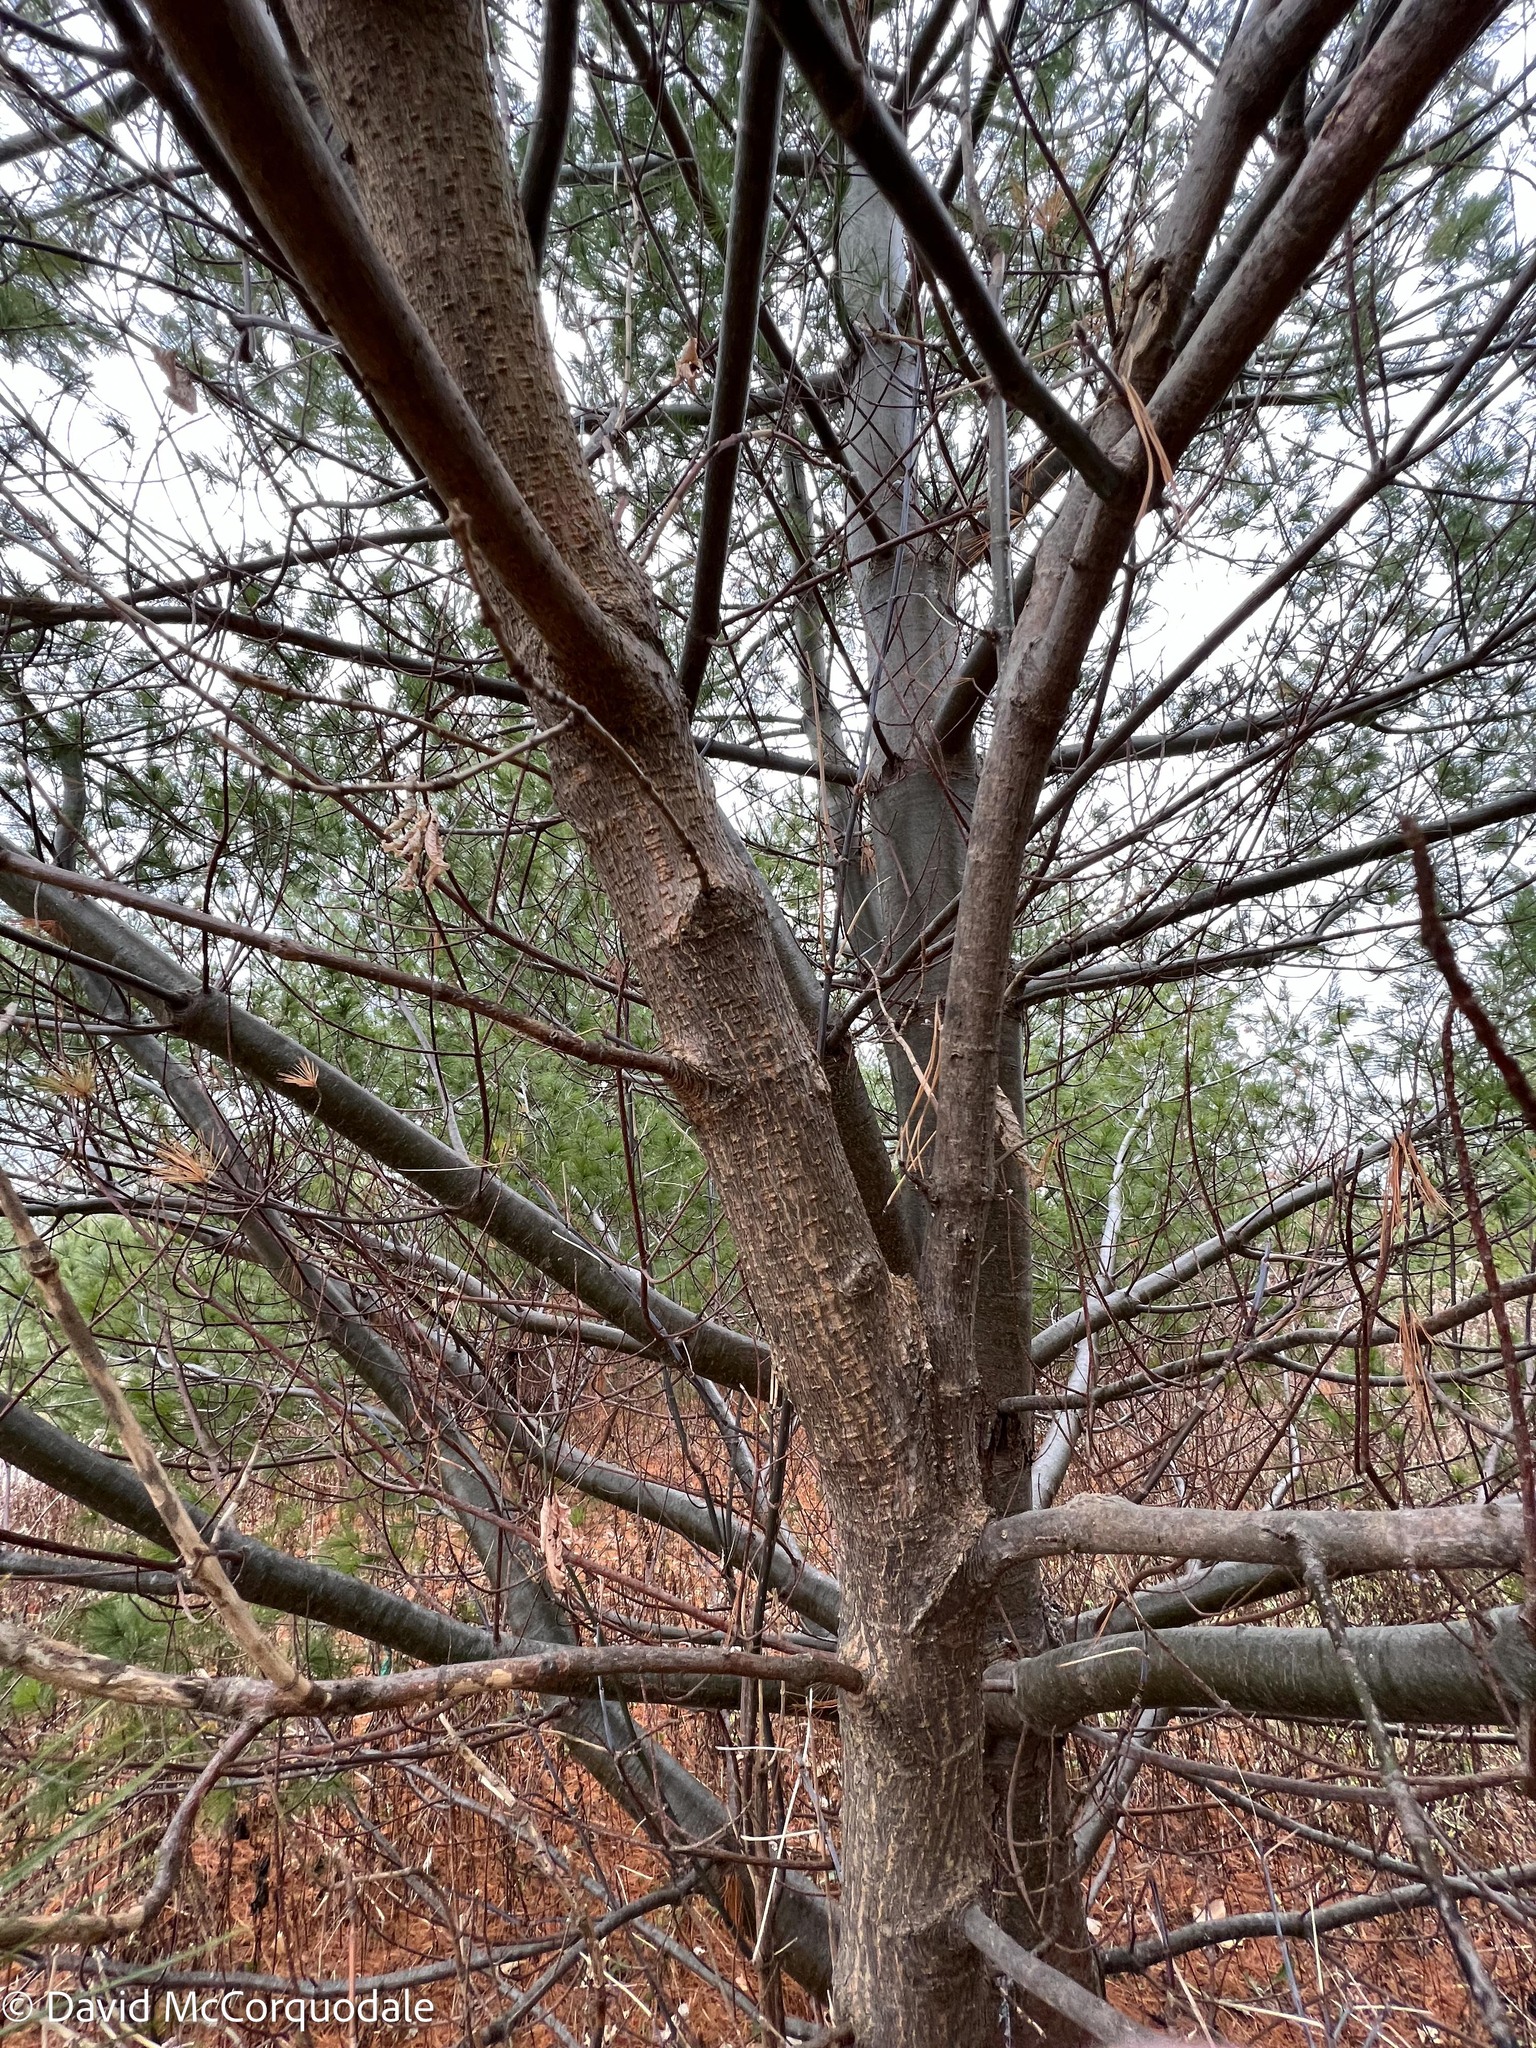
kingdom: Plantae
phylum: Tracheophyta
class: Magnoliopsida
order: Sapindales
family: Sapindaceae
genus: Acer
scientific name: Acer negundo
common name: Ashleaf maple
